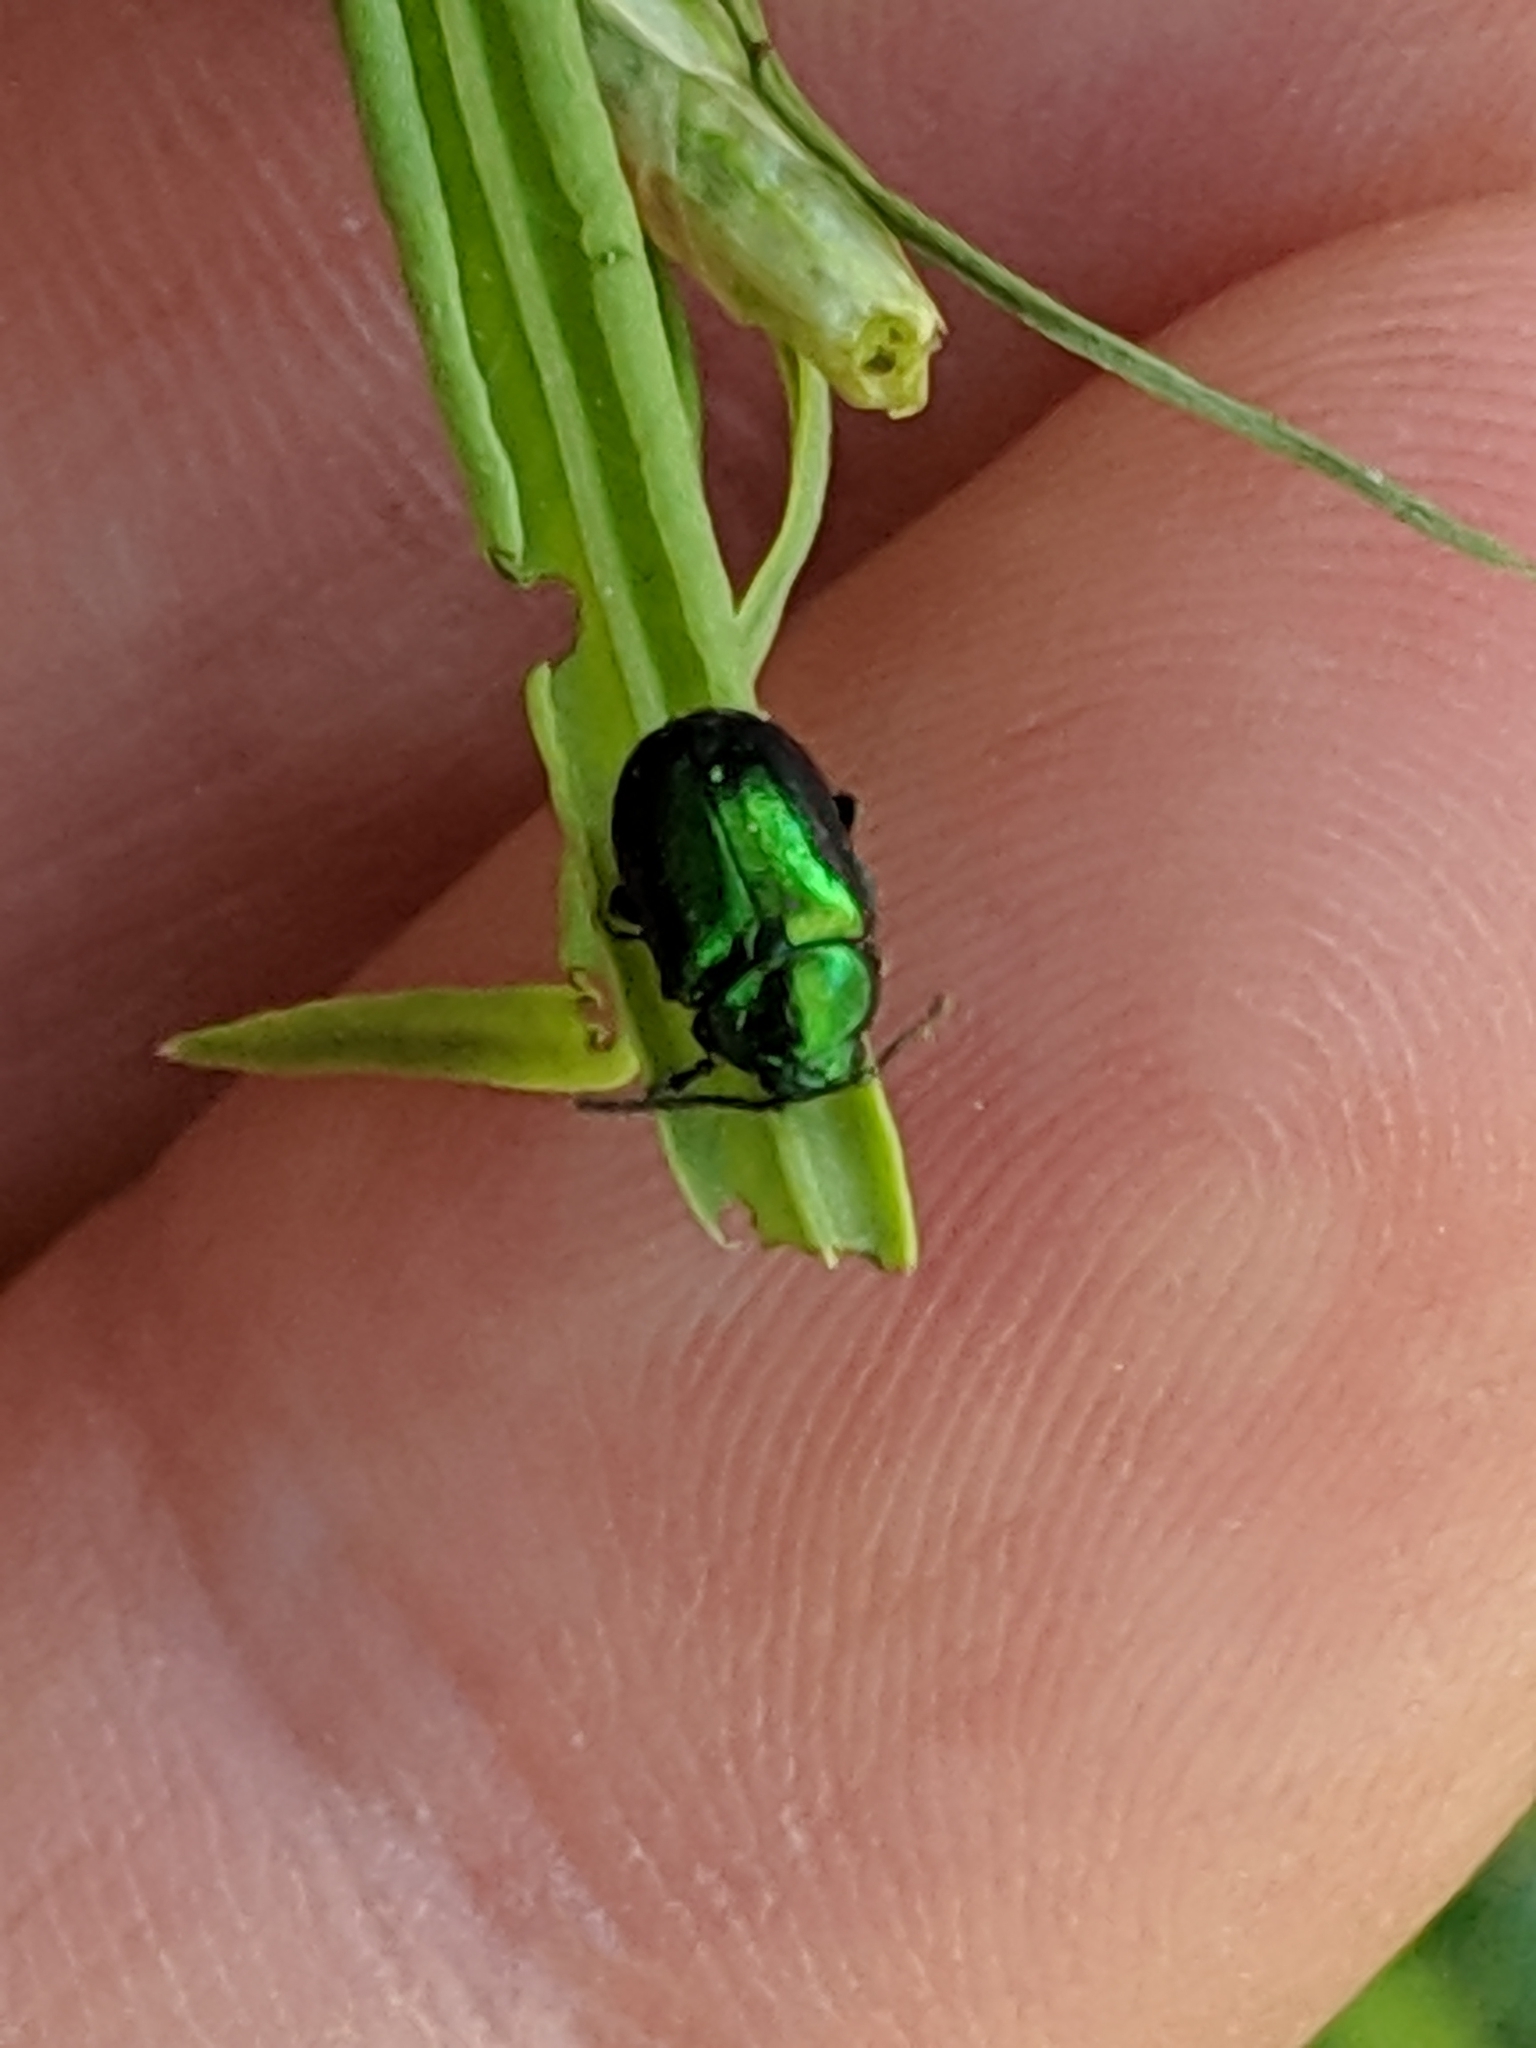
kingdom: Animalia
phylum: Arthropoda
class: Insecta
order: Coleoptera
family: Chrysomelidae
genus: Gastrophysa
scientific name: Gastrophysa cyanea
